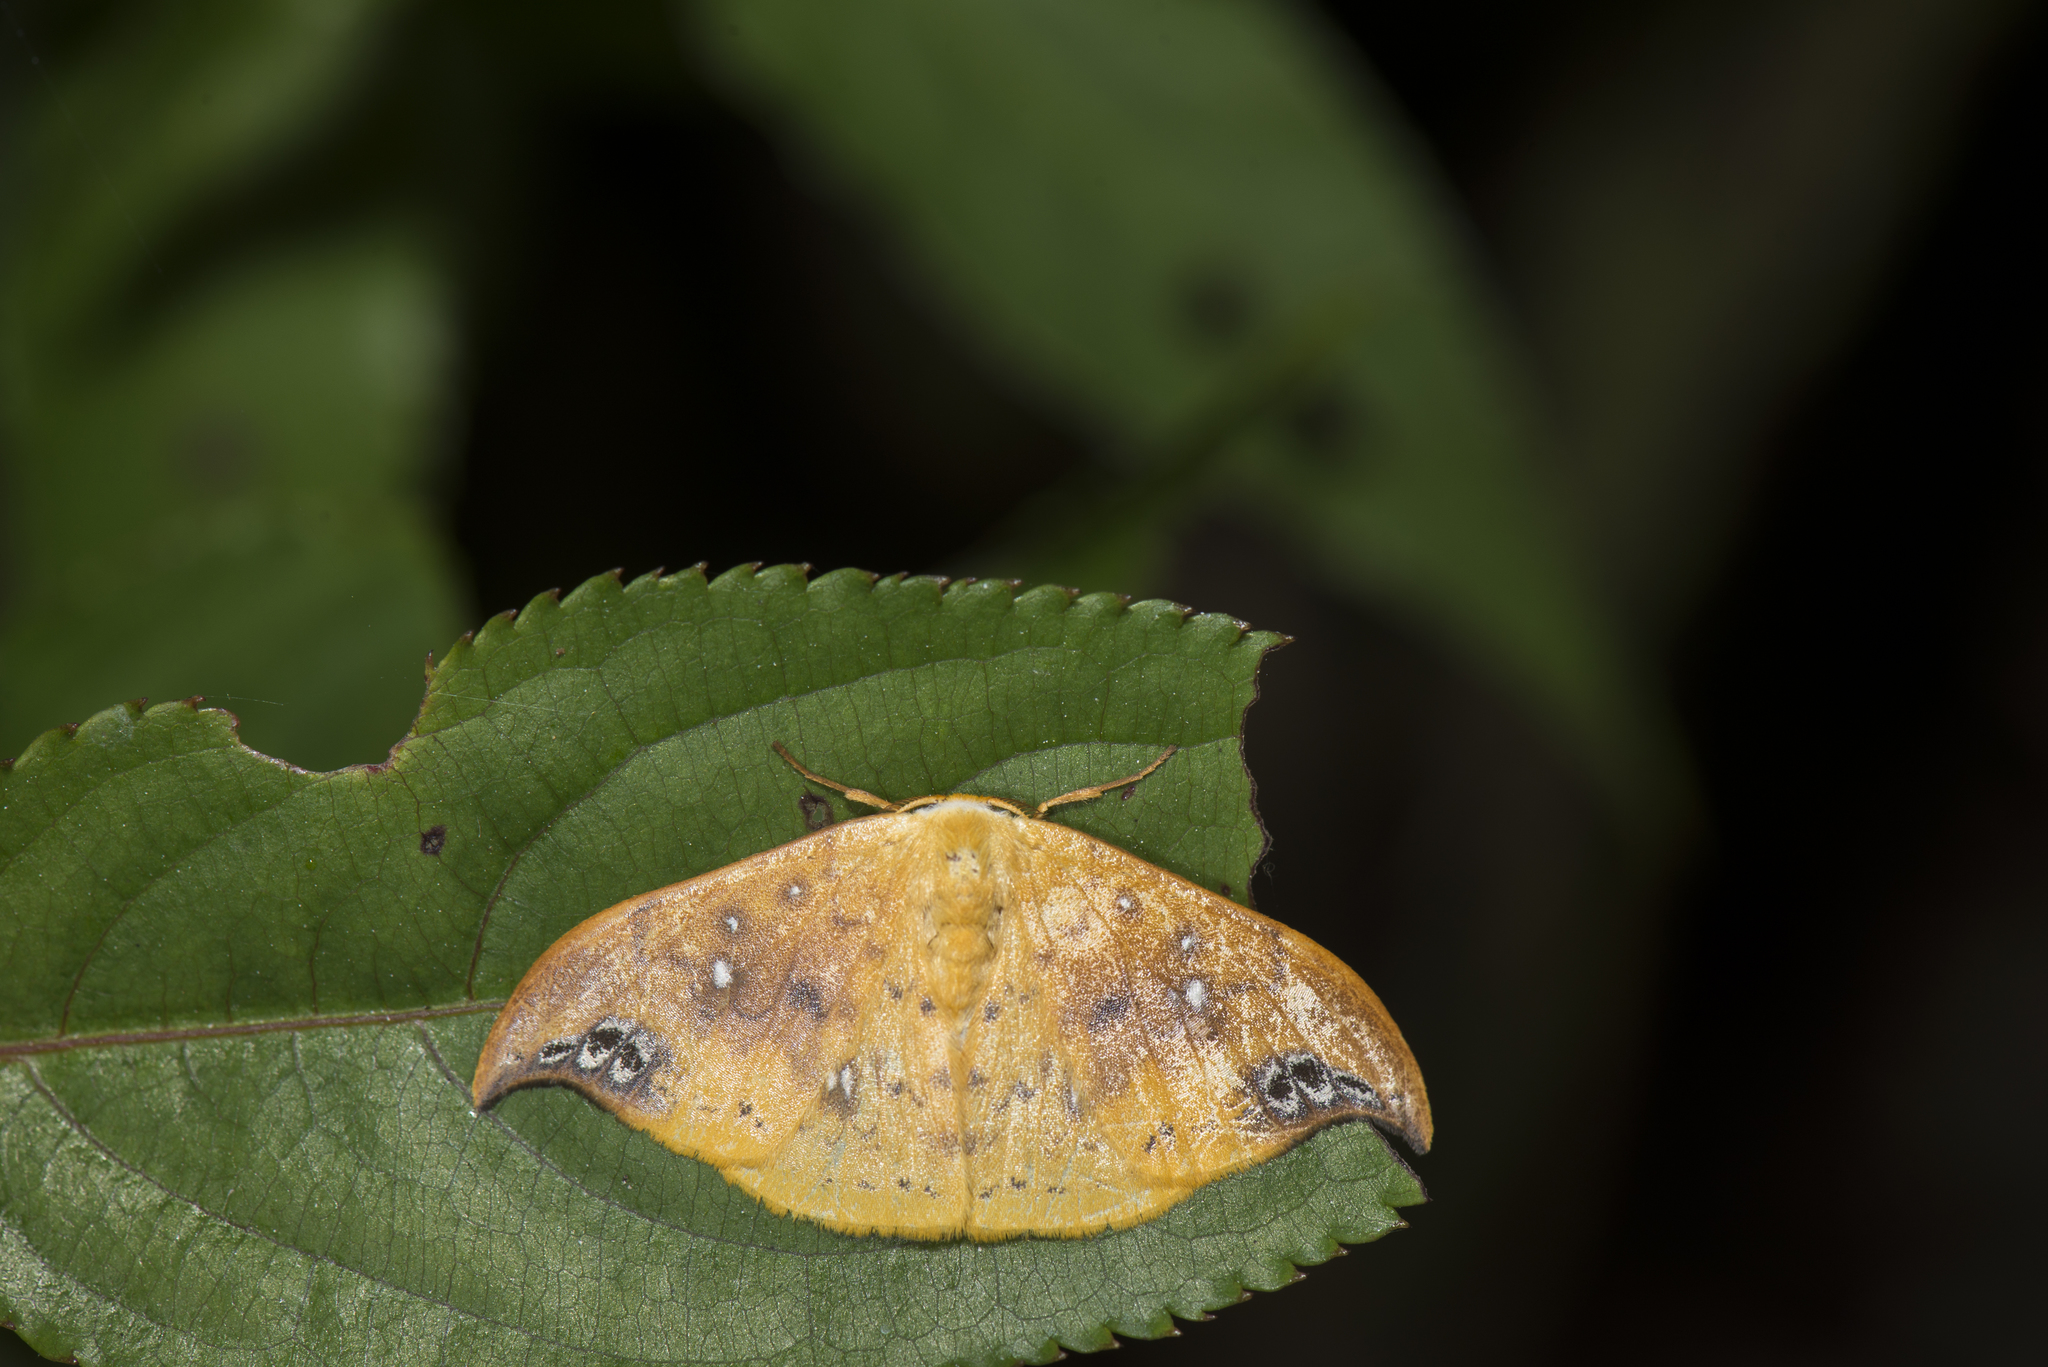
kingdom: Animalia
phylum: Arthropoda
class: Insecta
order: Lepidoptera
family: Drepanidae
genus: Tridrepana
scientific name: Tridrepana unispina
